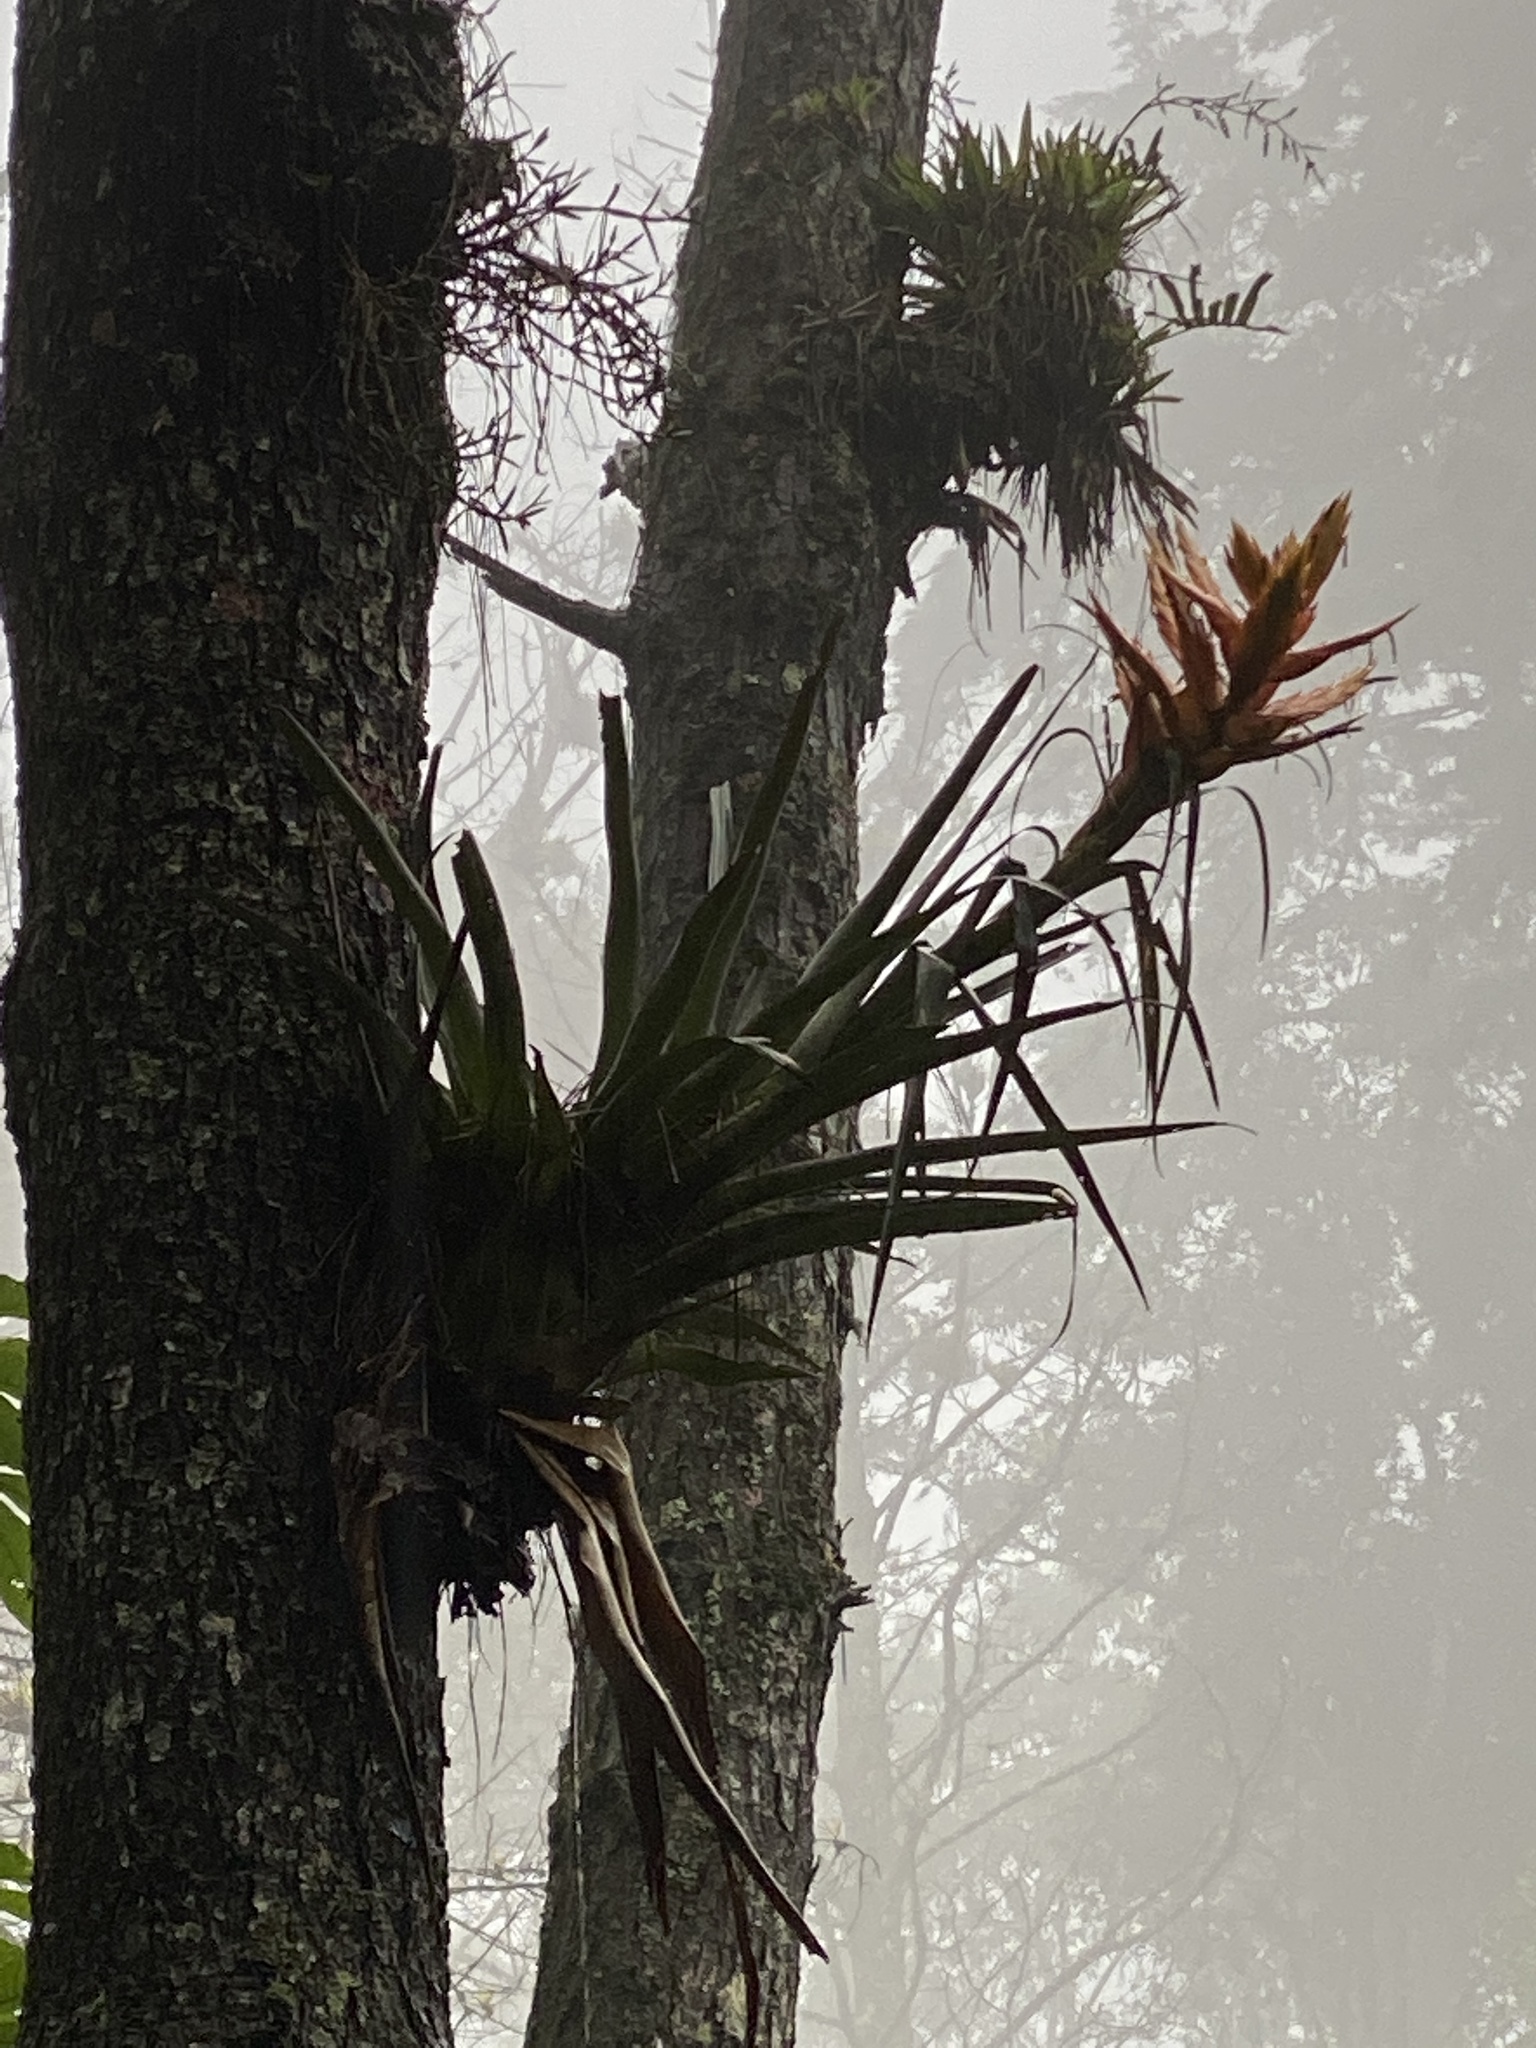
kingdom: Plantae
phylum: Tracheophyta
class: Liliopsida
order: Poales
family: Bromeliaceae
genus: Tillandsia
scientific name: Tillandsia ponderosa
